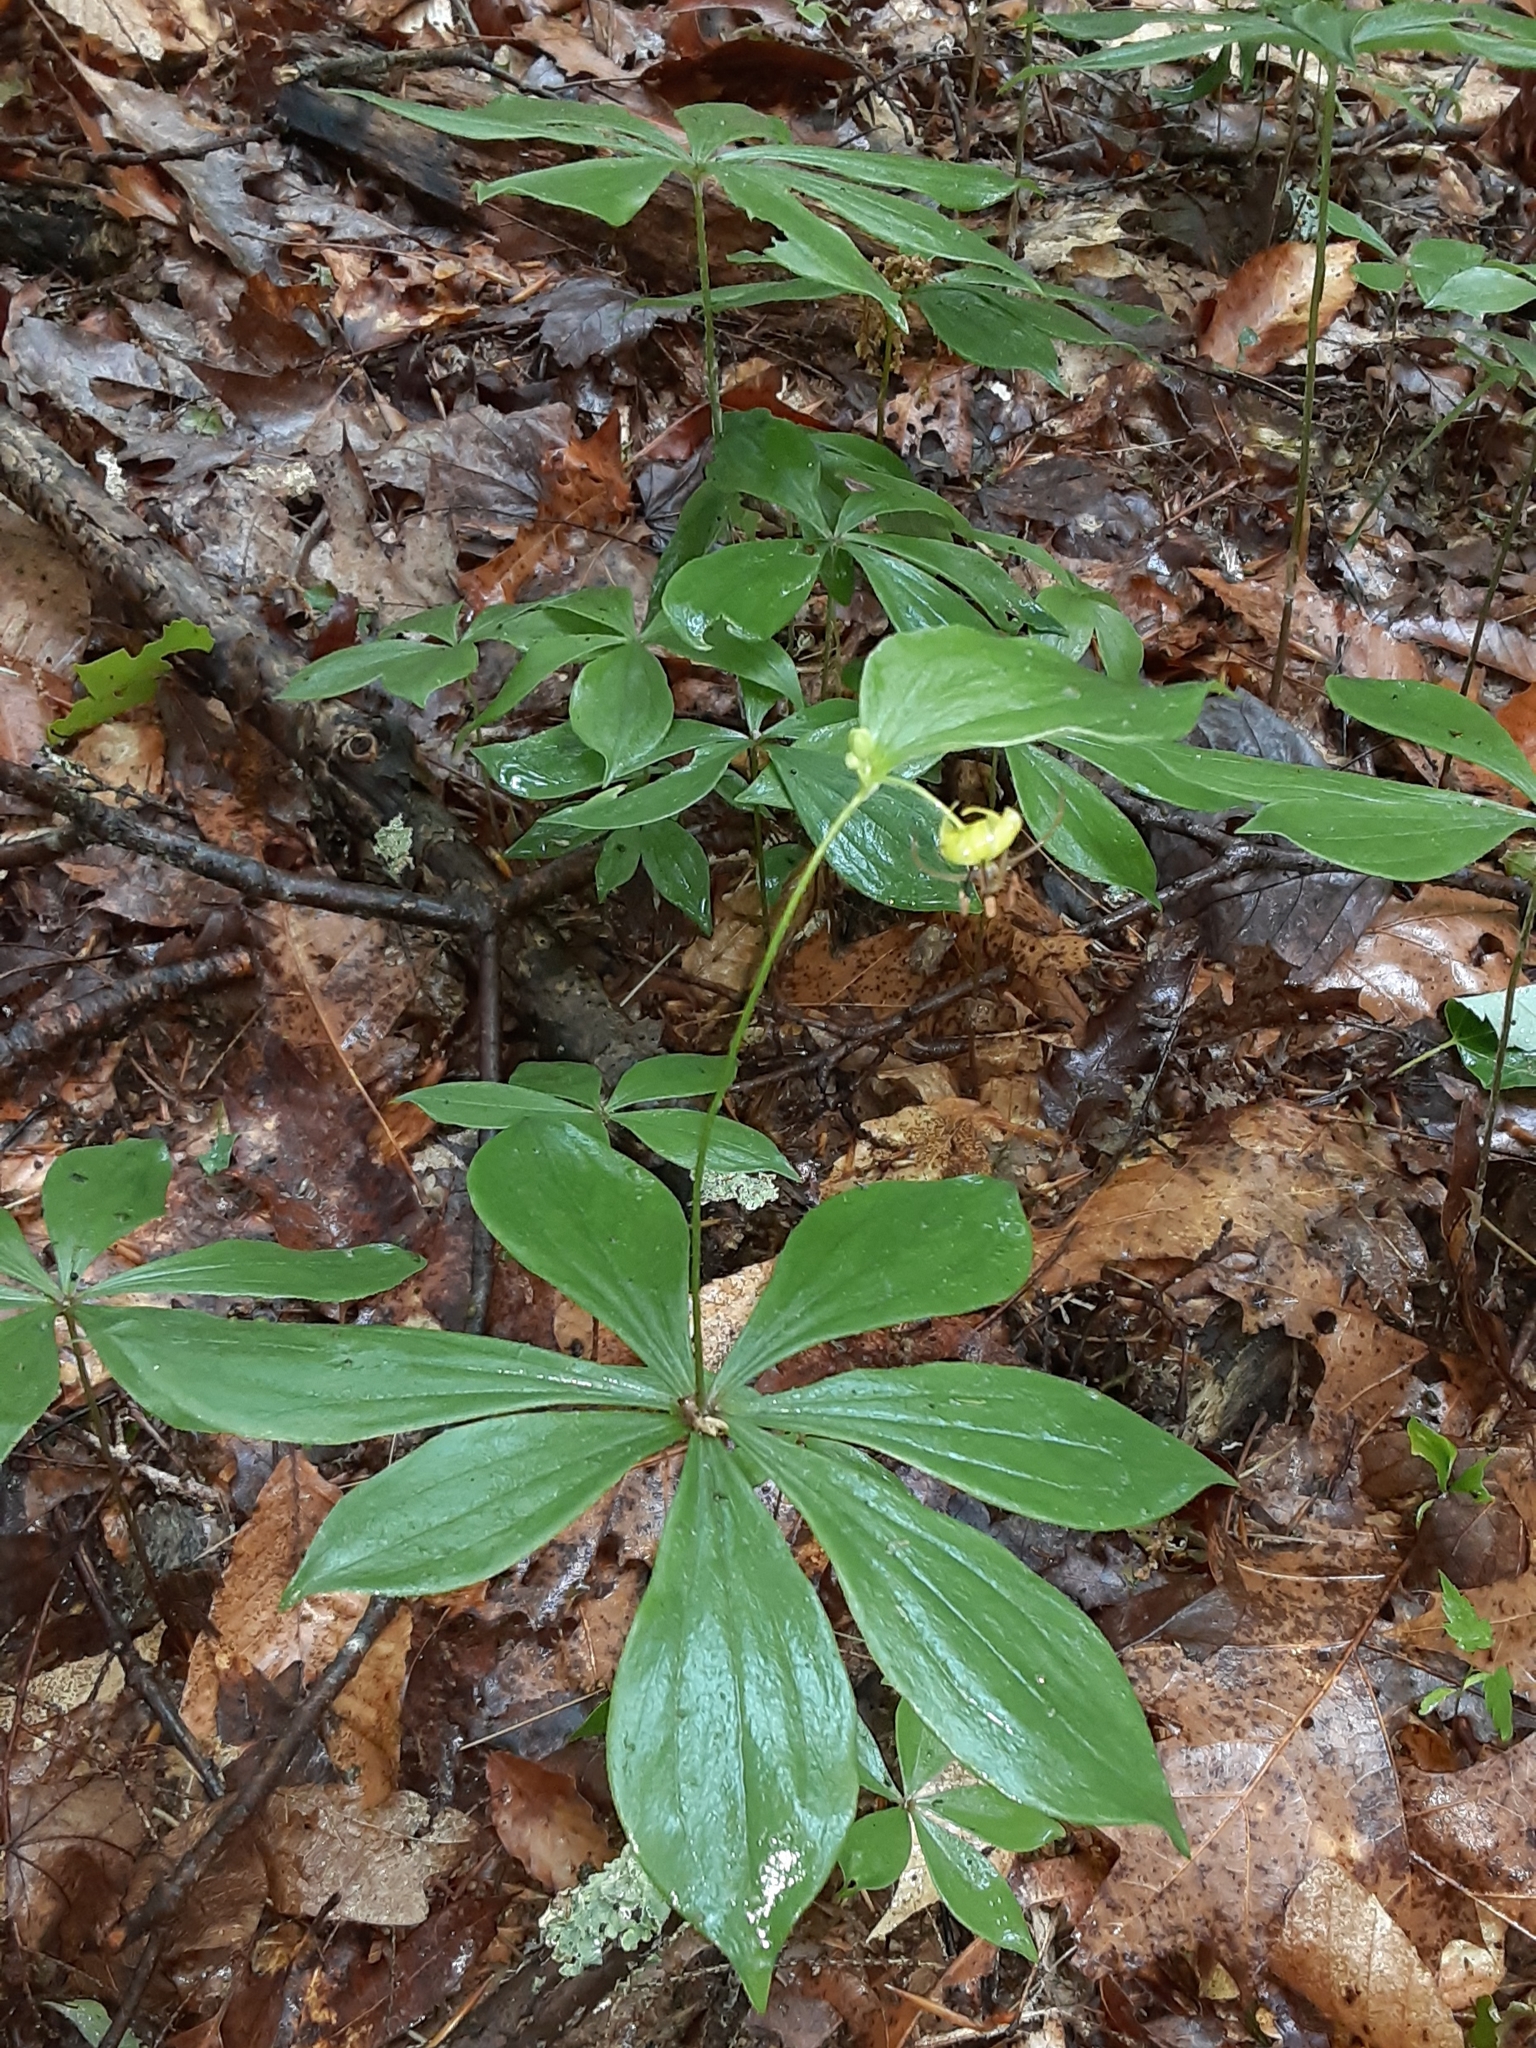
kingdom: Plantae
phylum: Tracheophyta
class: Liliopsida
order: Liliales
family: Liliaceae
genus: Medeola
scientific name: Medeola virginiana
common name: Indian cucumber-root
